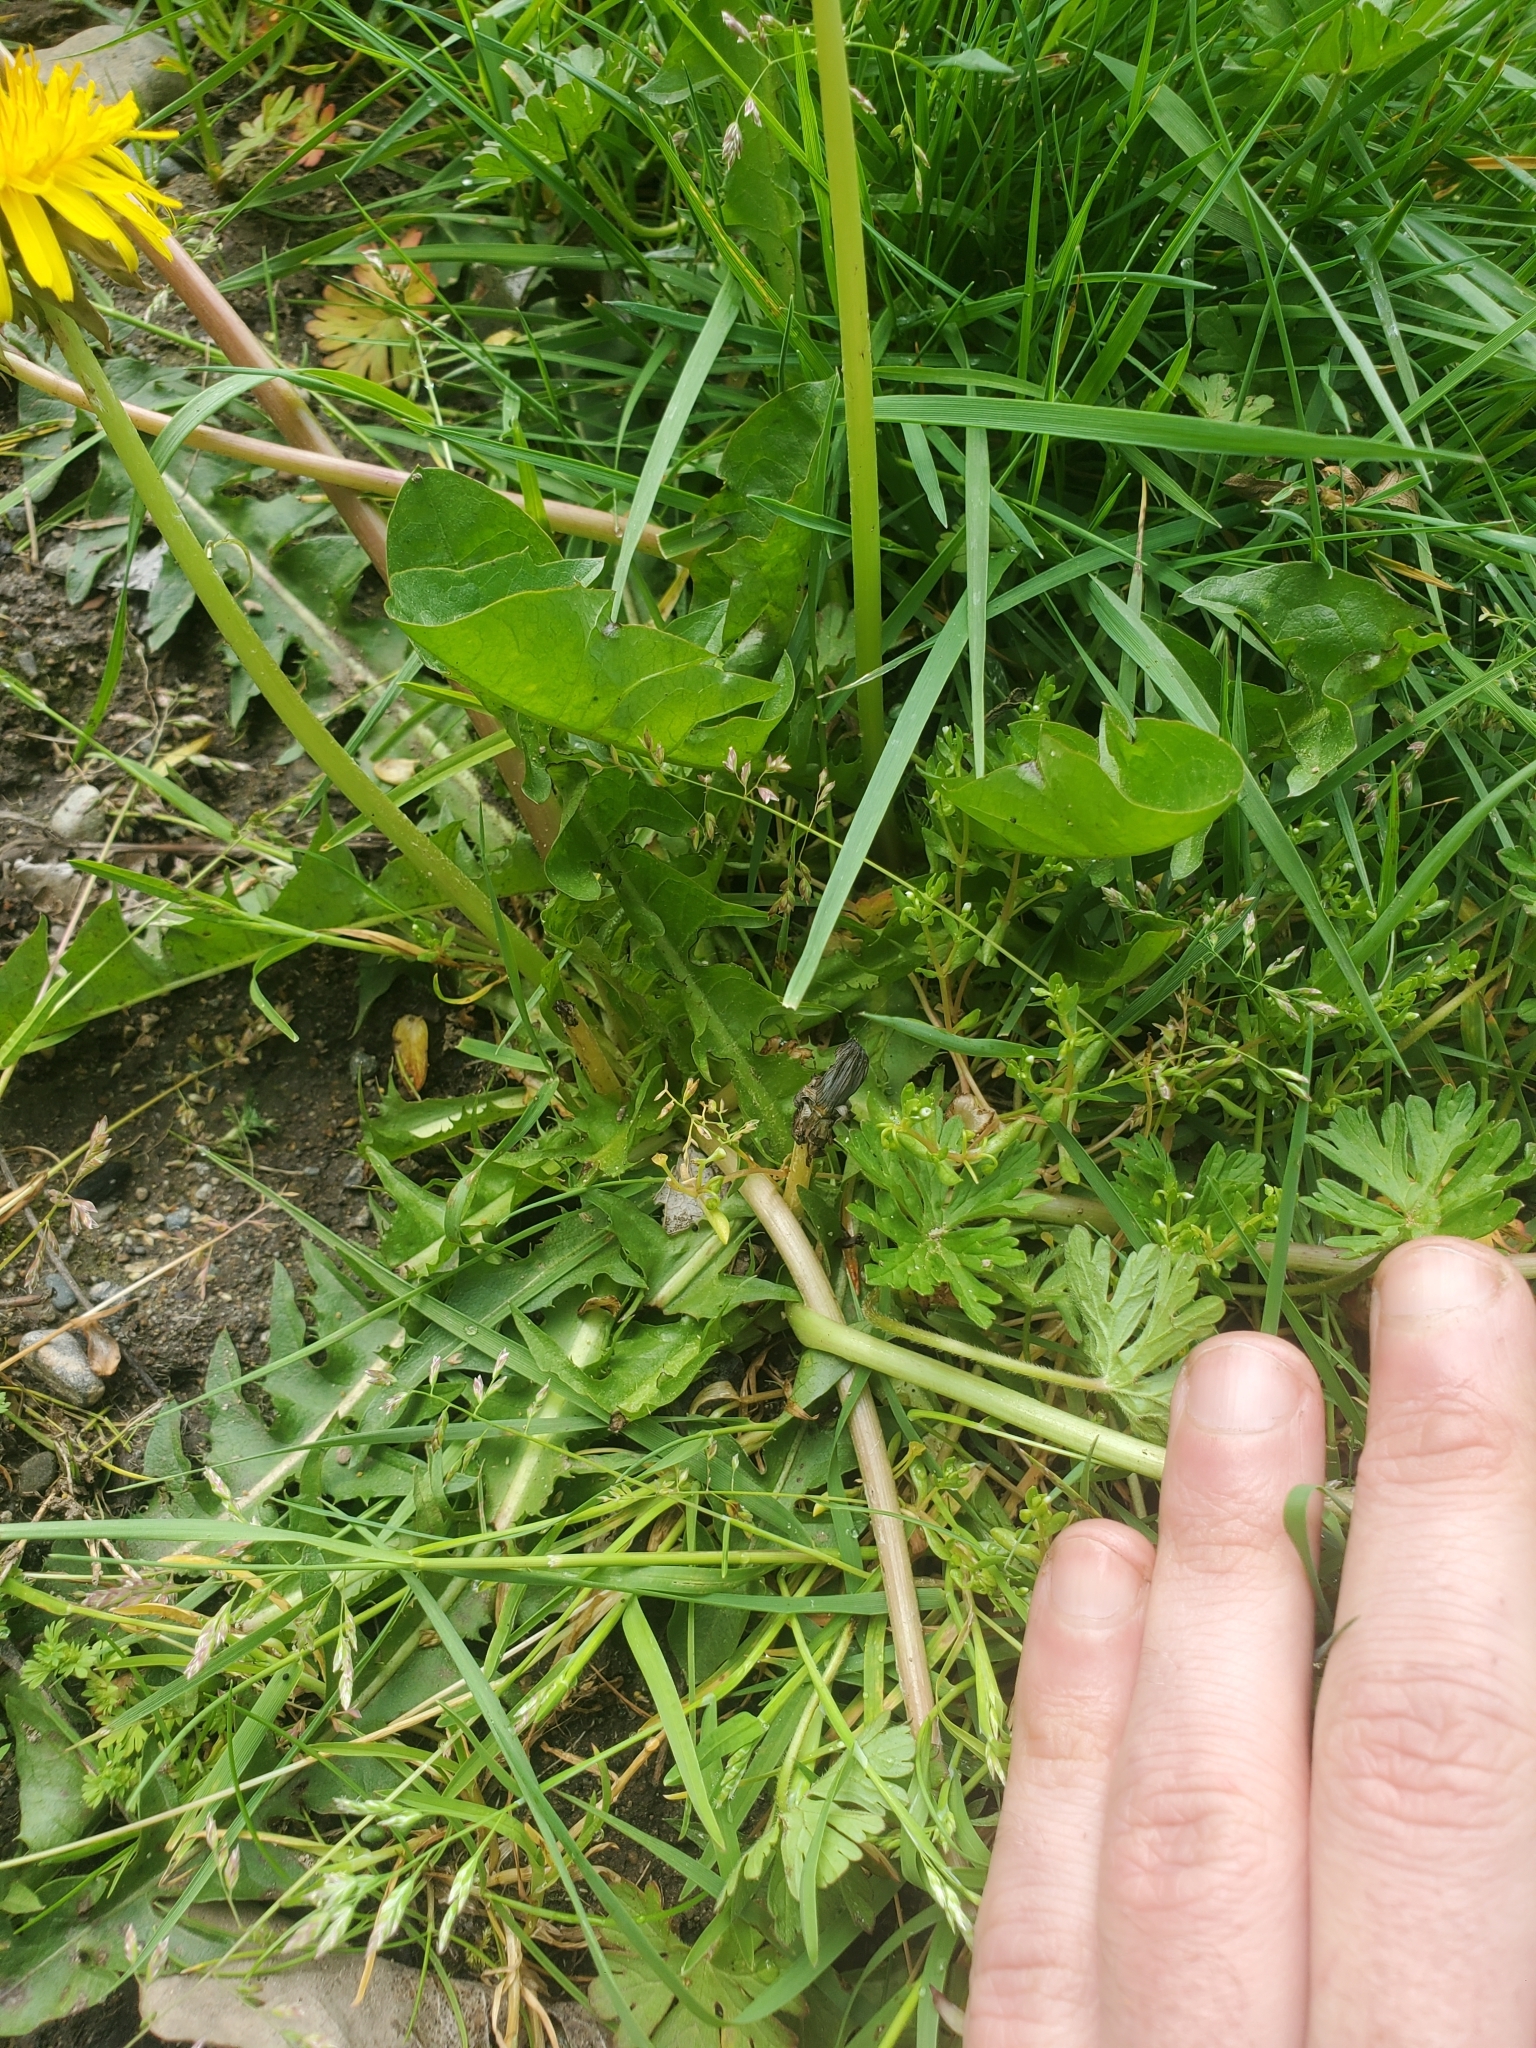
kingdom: Plantae
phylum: Tracheophyta
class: Magnoliopsida
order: Asterales
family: Asteraceae
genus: Taraxacum
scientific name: Taraxacum officinale
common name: Common dandelion
